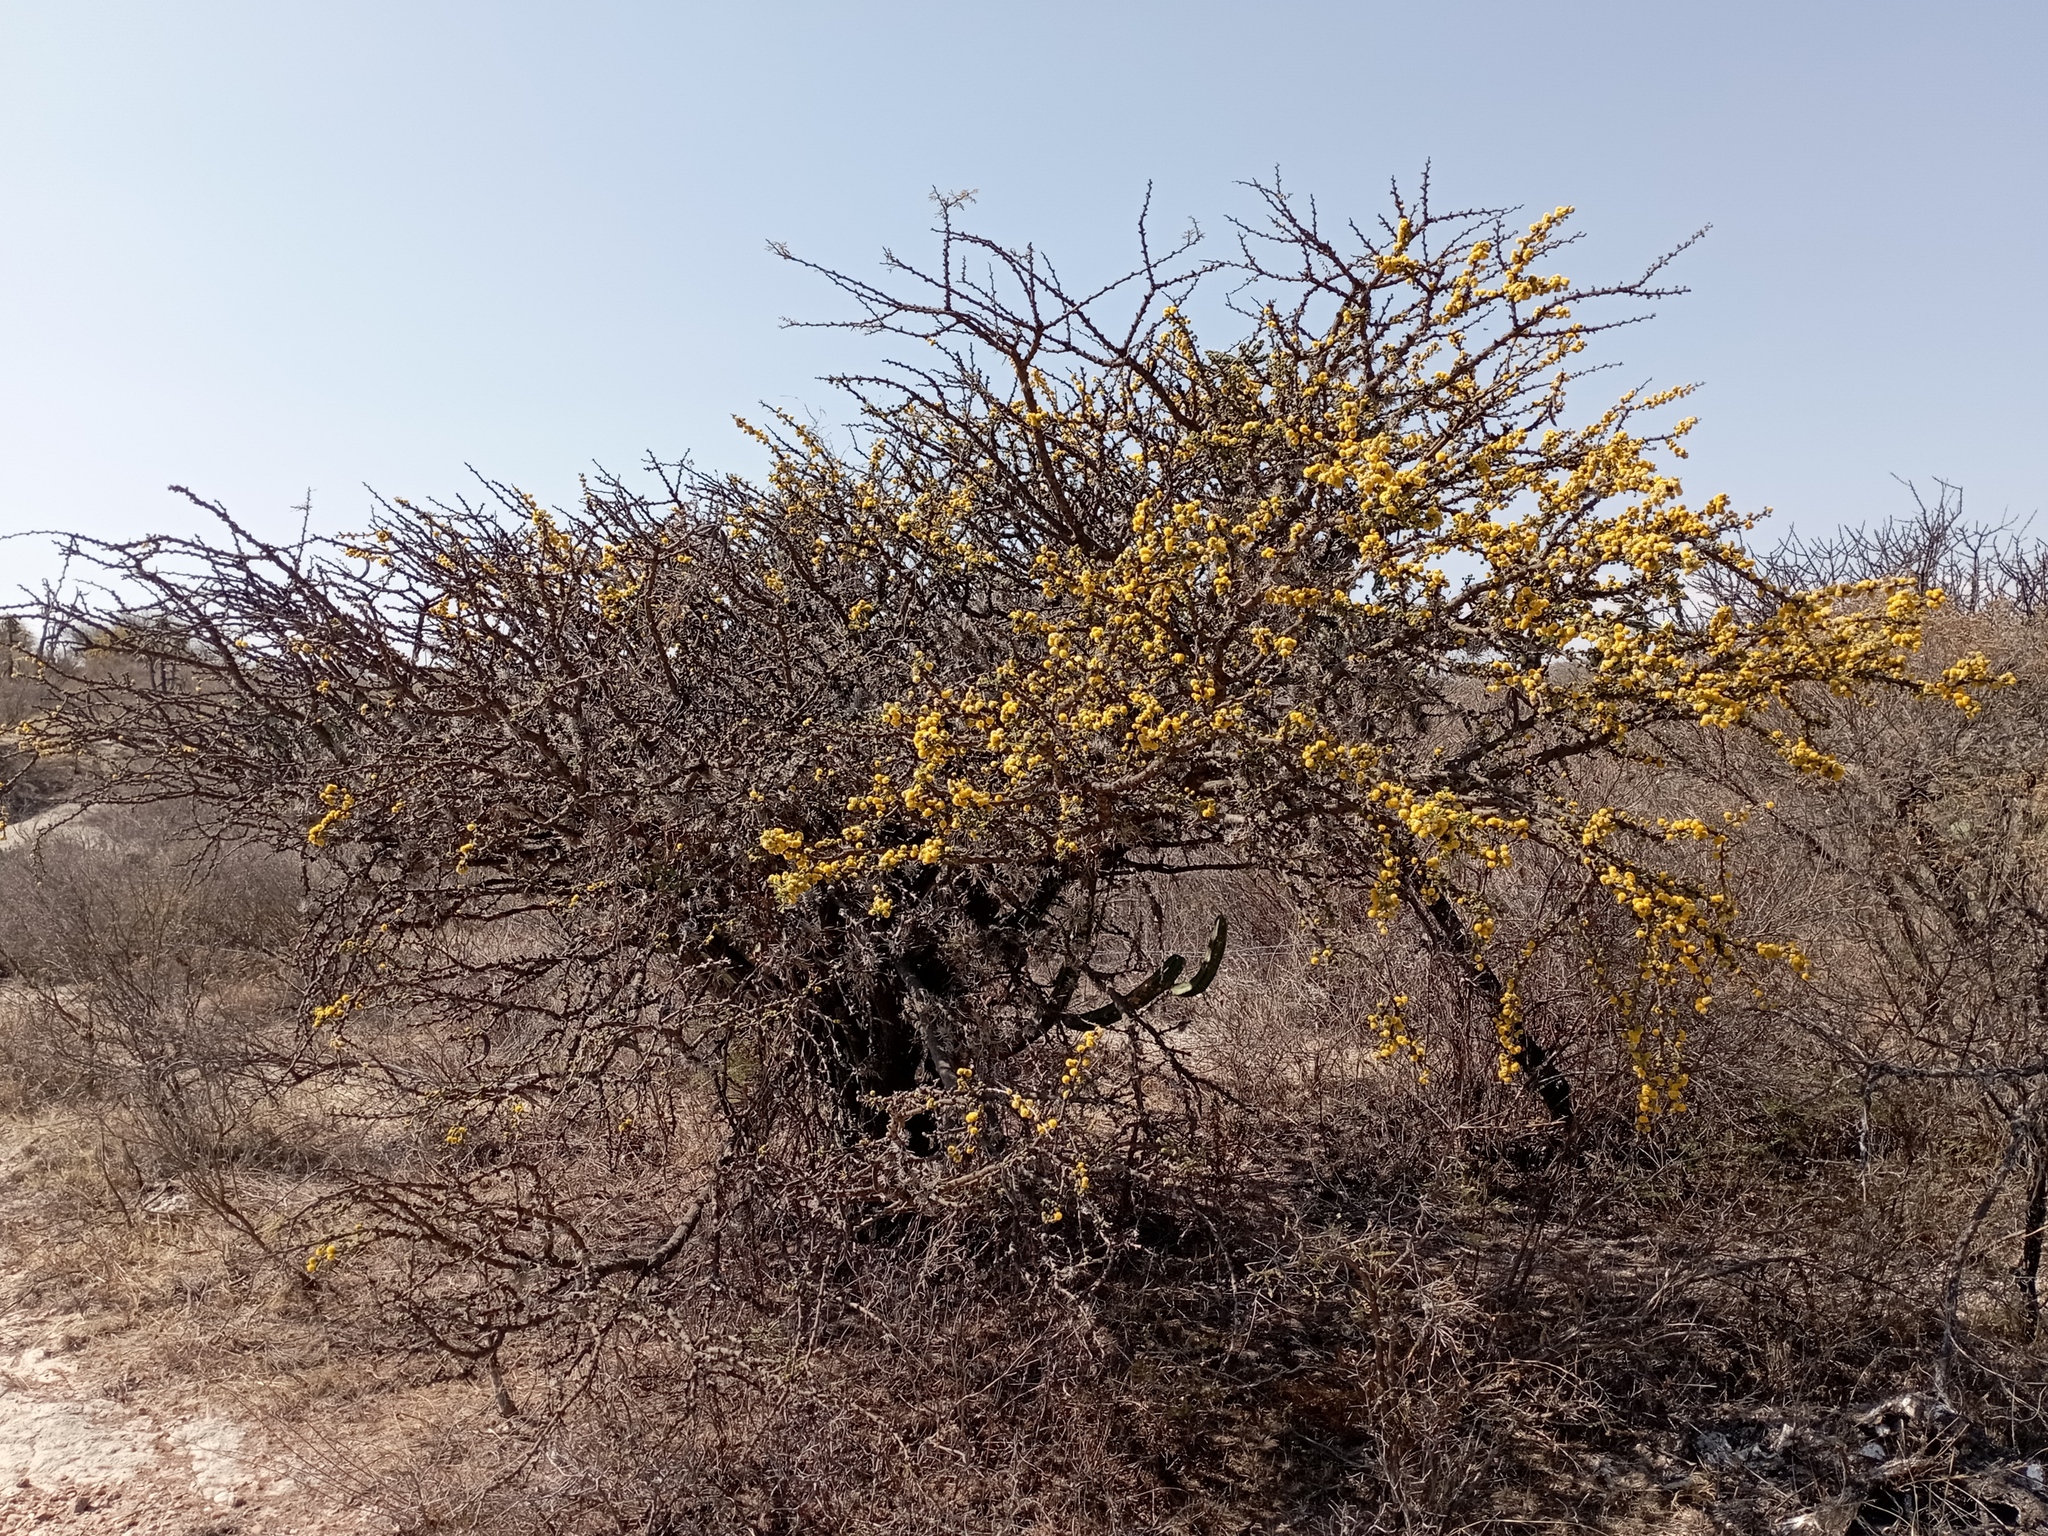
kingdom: Plantae
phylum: Tracheophyta
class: Magnoliopsida
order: Fabales
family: Fabaceae
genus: Vachellia
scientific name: Vachellia schaffneri
